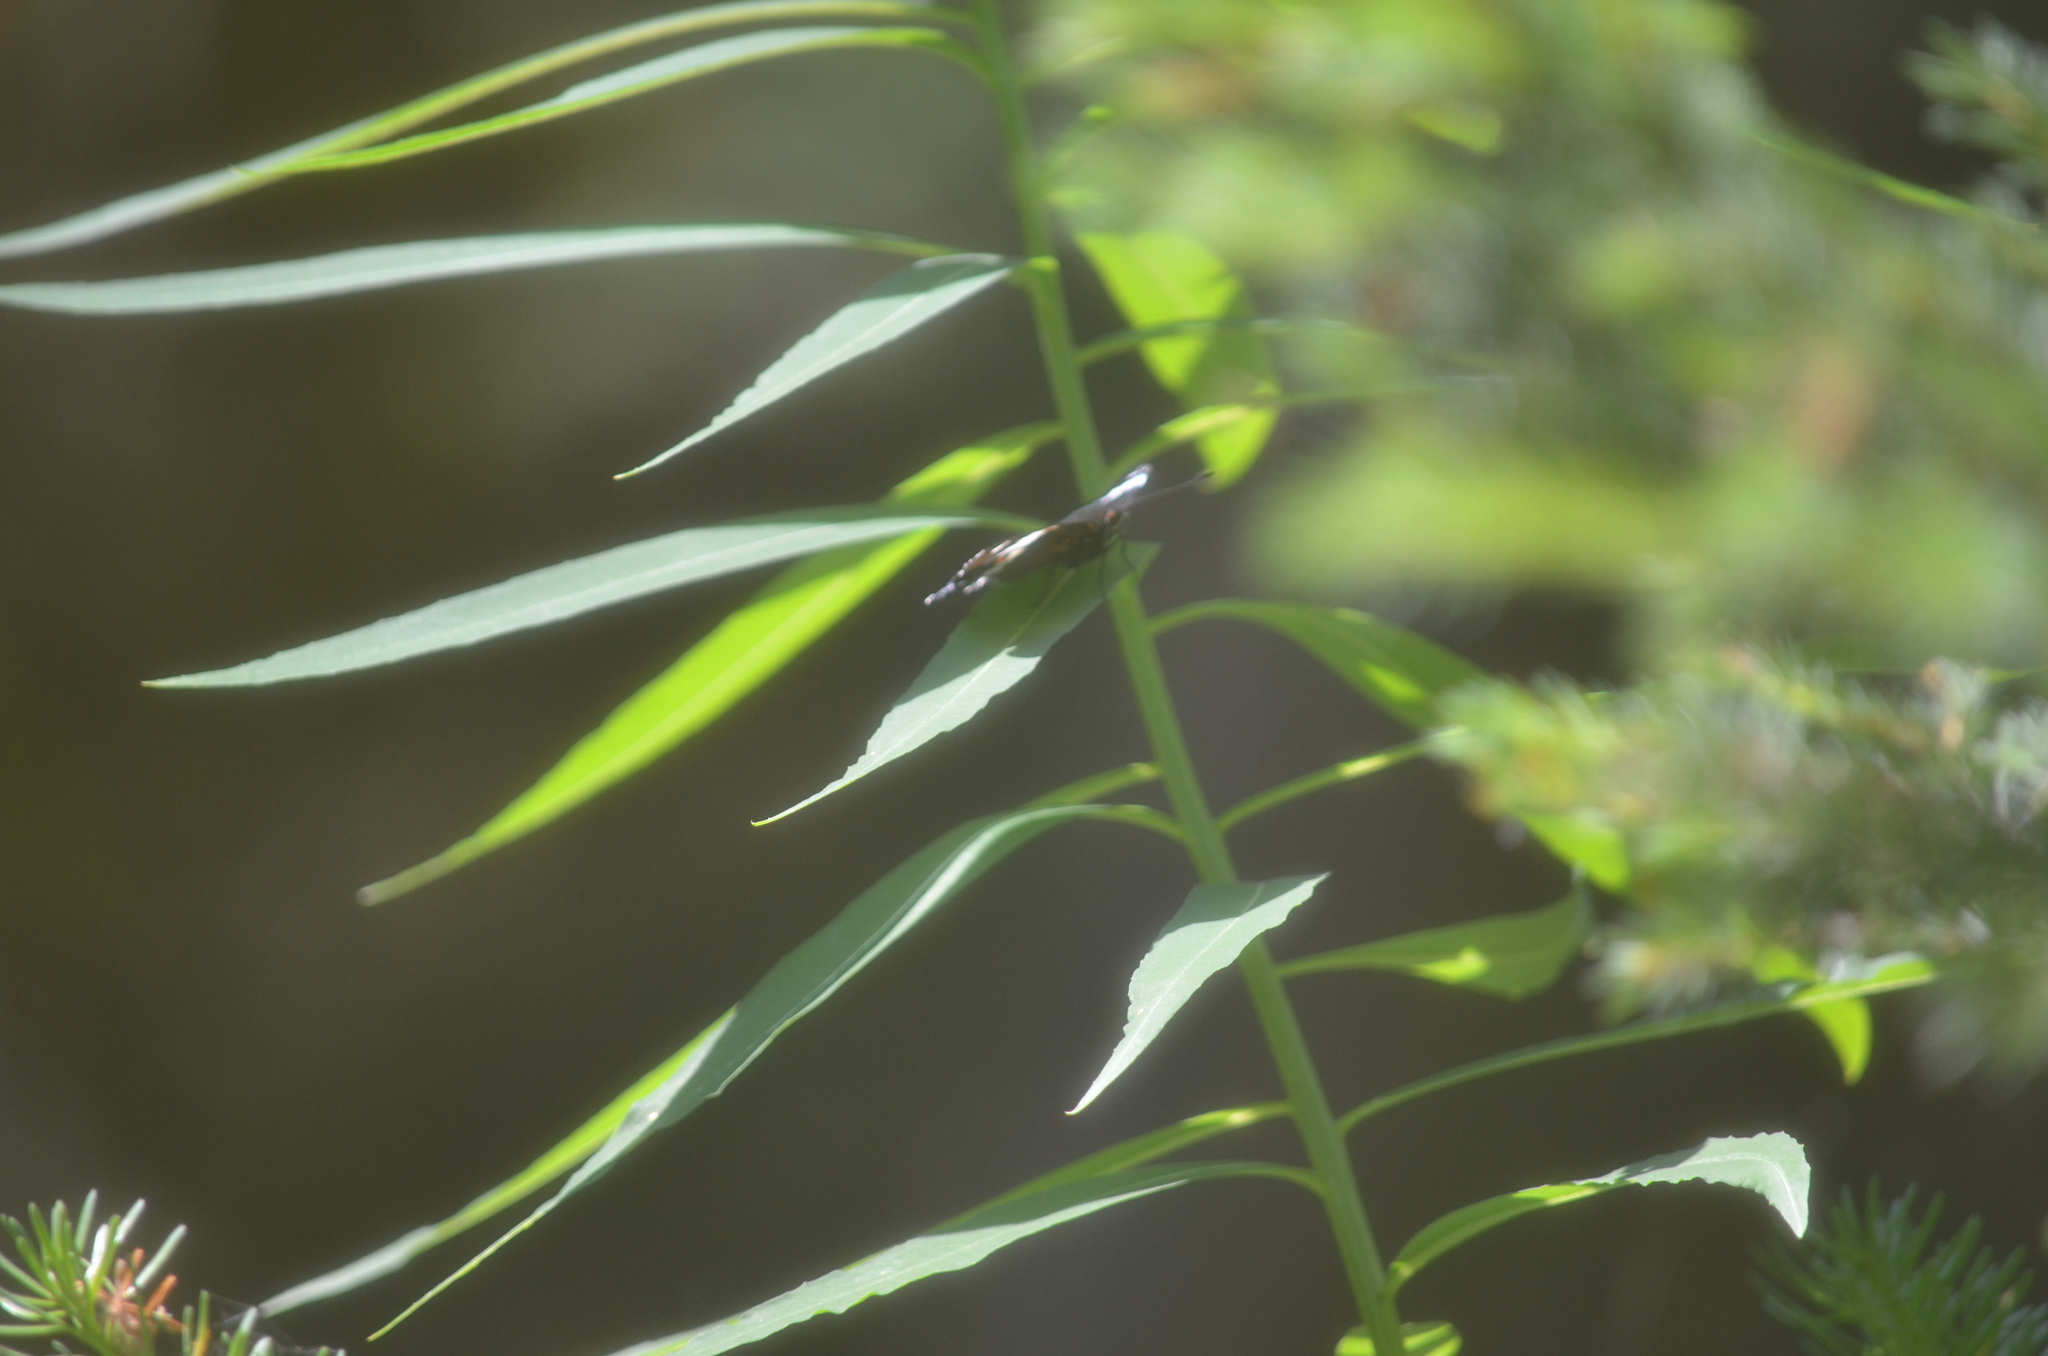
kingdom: Animalia
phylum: Arthropoda
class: Insecta
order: Lepidoptera
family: Nymphalidae
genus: Limenitis
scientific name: Limenitis arthemis
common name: Red-spotted admiral
